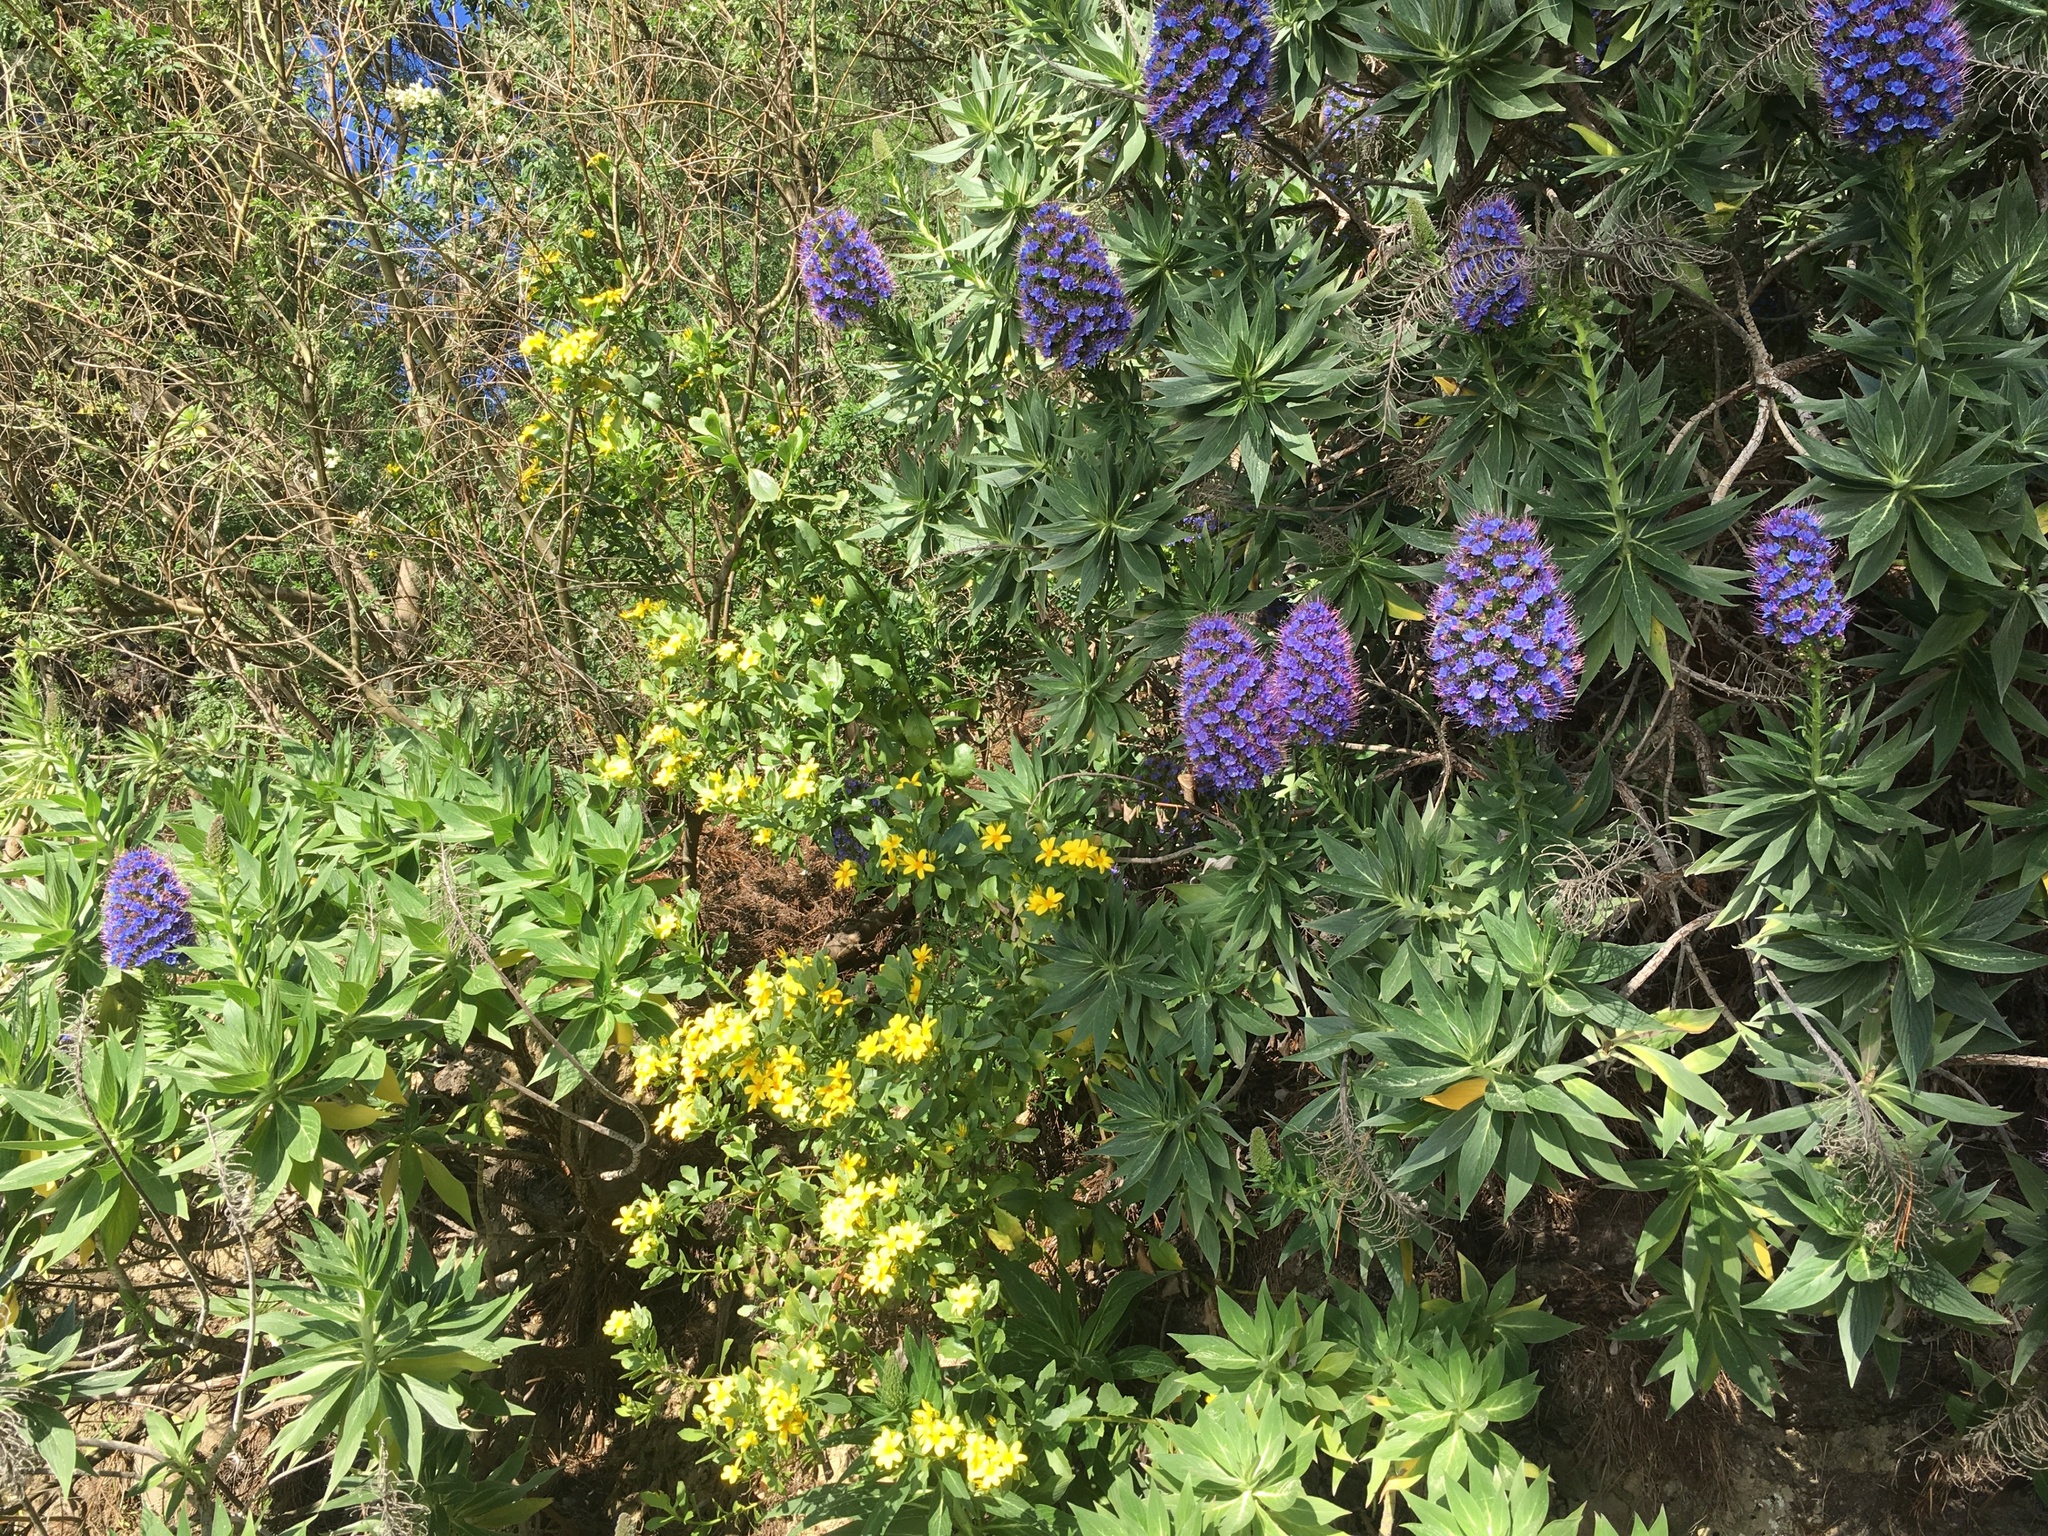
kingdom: Plantae
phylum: Tracheophyta
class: Magnoliopsida
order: Boraginales
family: Boraginaceae
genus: Echium
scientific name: Echium candicans
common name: Pride of madeira
